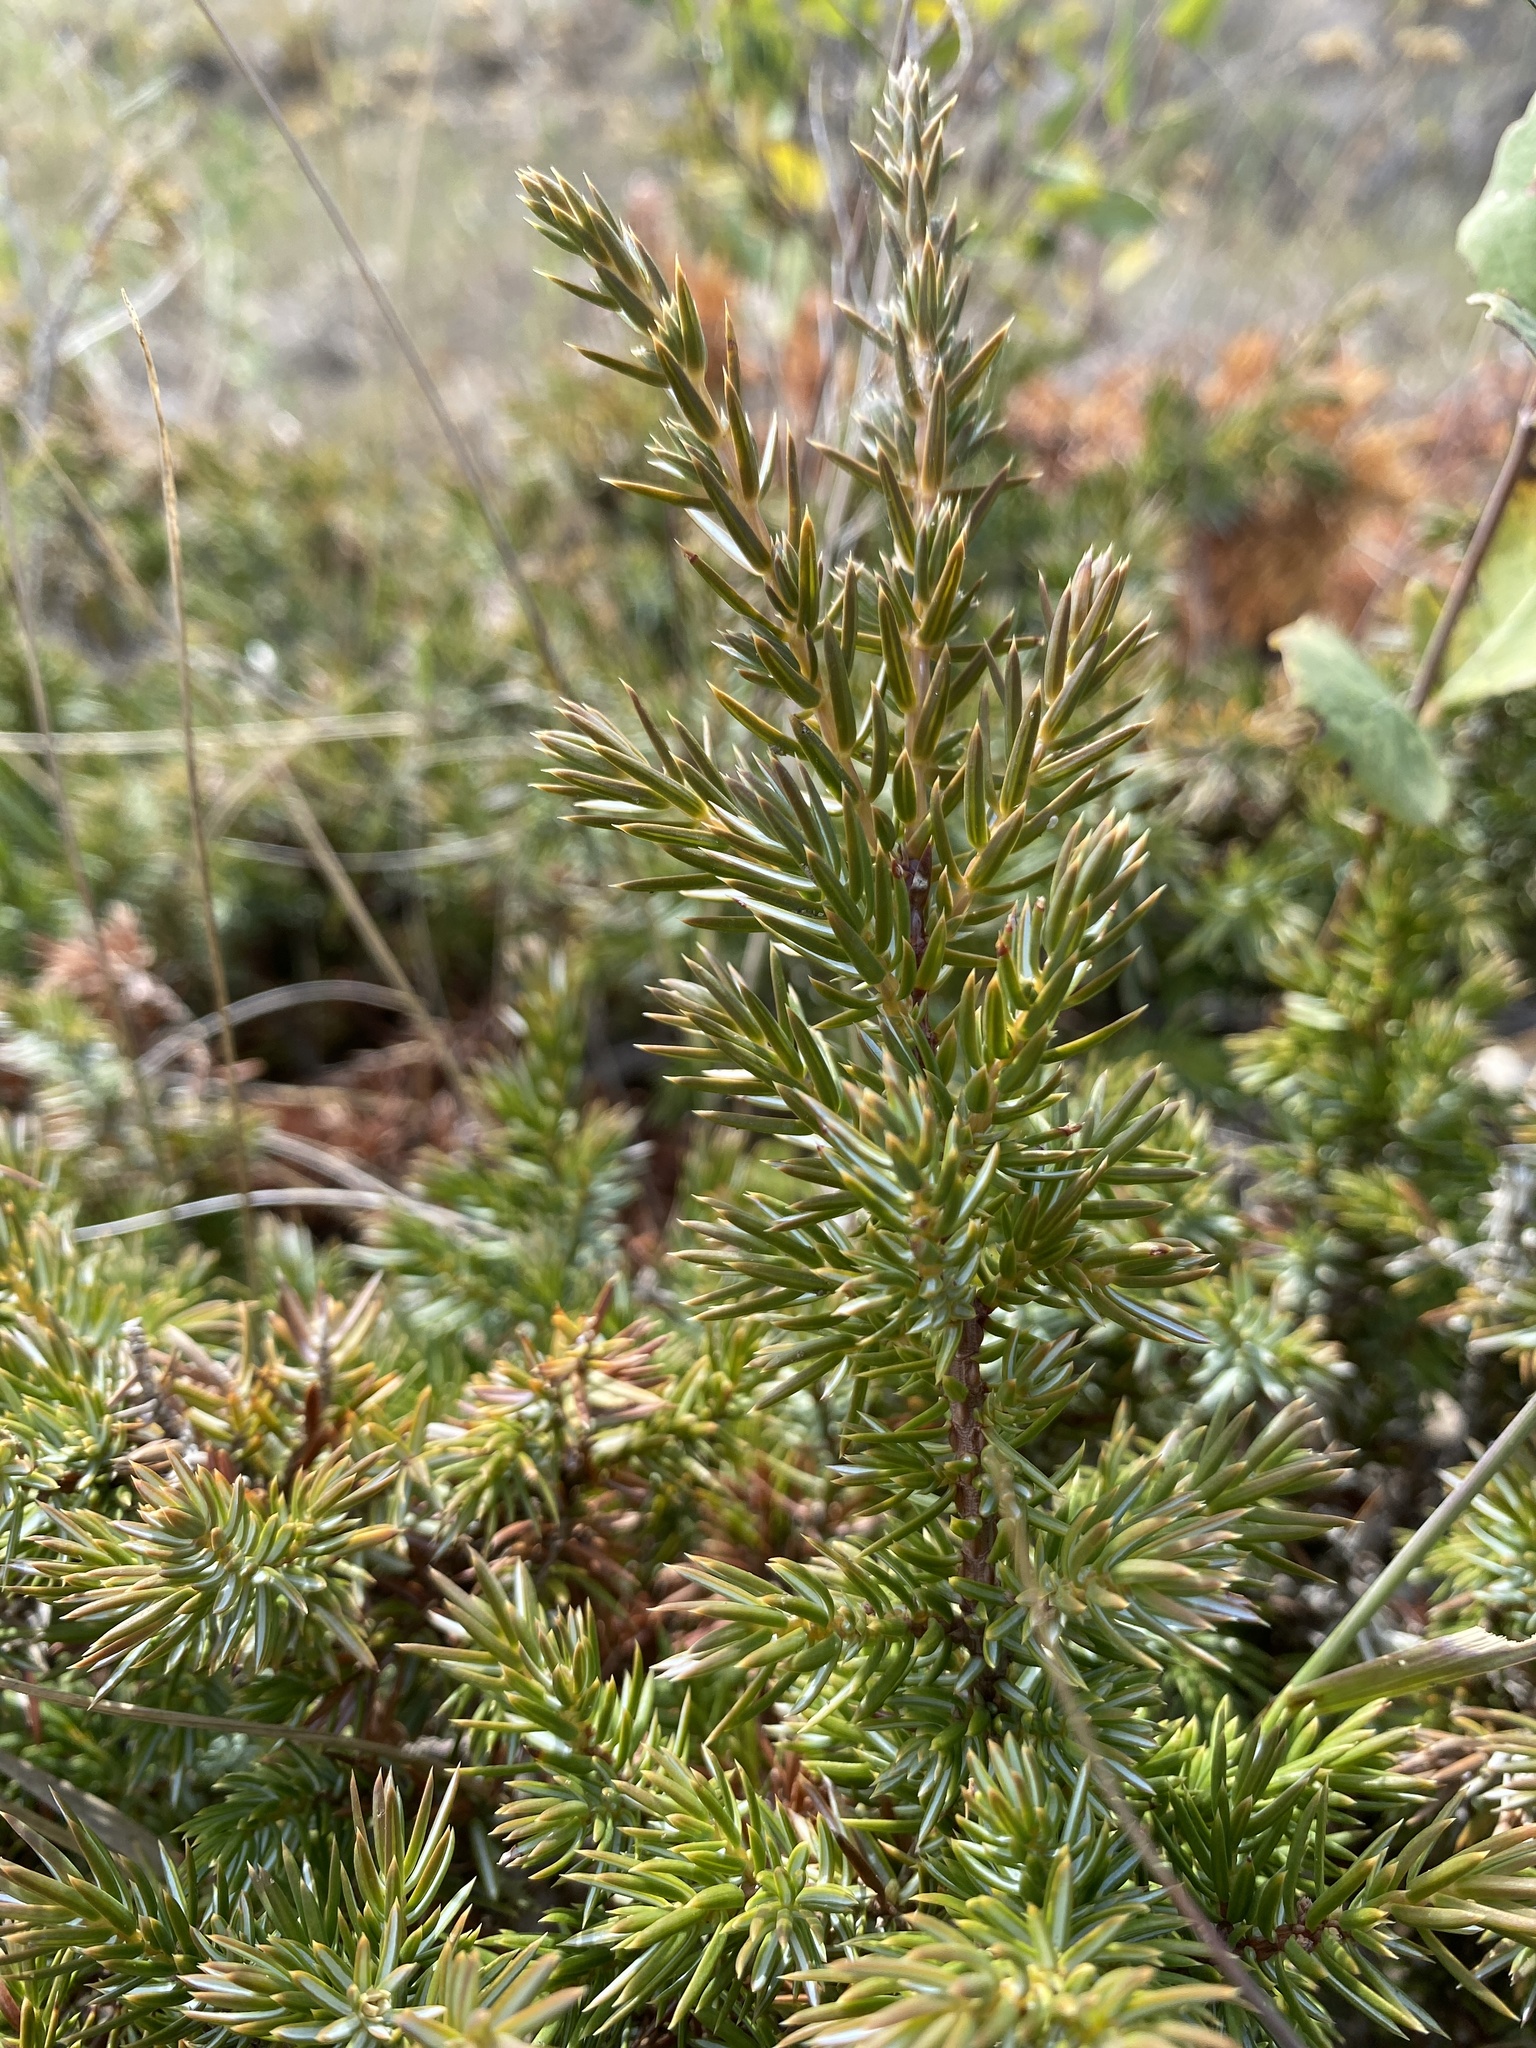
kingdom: Plantae
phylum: Tracheophyta
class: Pinopsida
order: Pinales
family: Cupressaceae
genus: Juniperus
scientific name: Juniperus communis
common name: Common juniper
